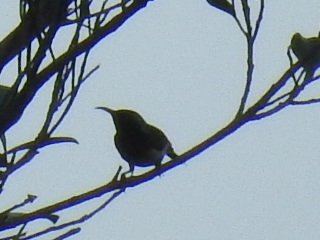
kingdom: Animalia
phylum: Chordata
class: Aves
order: Passeriformes
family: Nectariniidae
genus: Aethopyga
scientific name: Aethopyga christinae
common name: Fork-tailed sunbird
